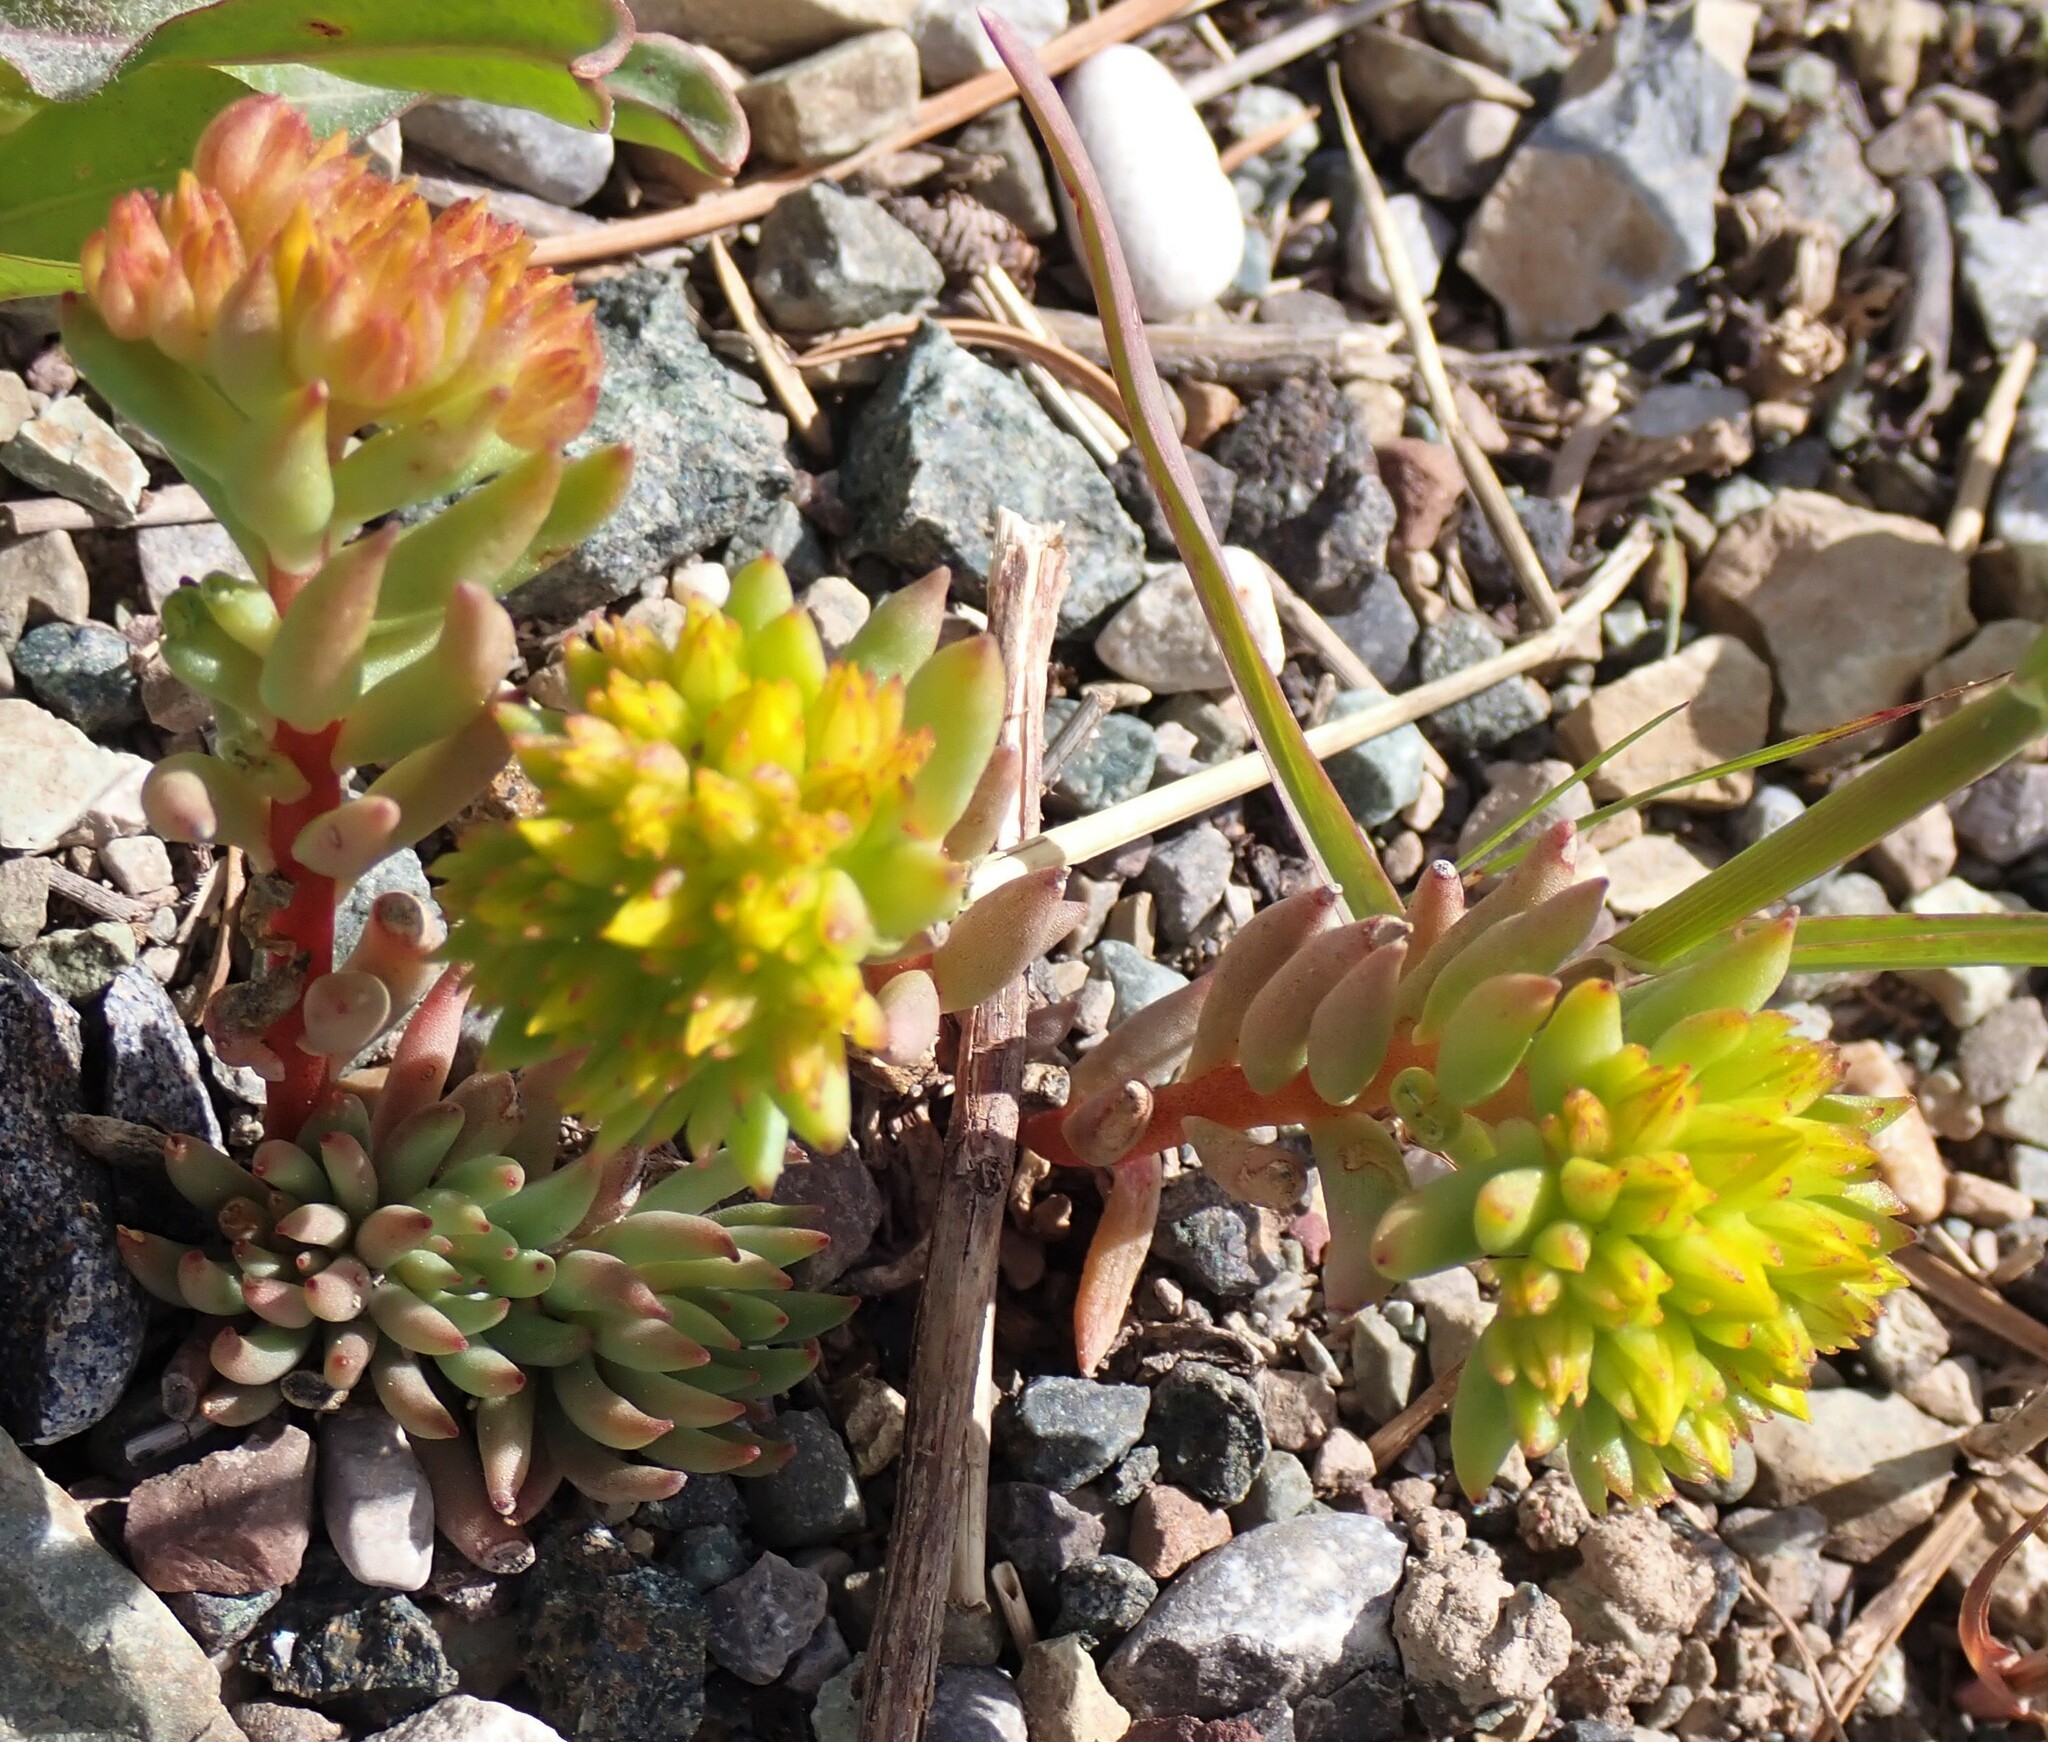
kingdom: Plantae
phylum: Tracheophyta
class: Magnoliopsida
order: Saxifragales
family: Crassulaceae
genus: Sedum
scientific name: Sedum lanceolatum
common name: Common stonecrop
